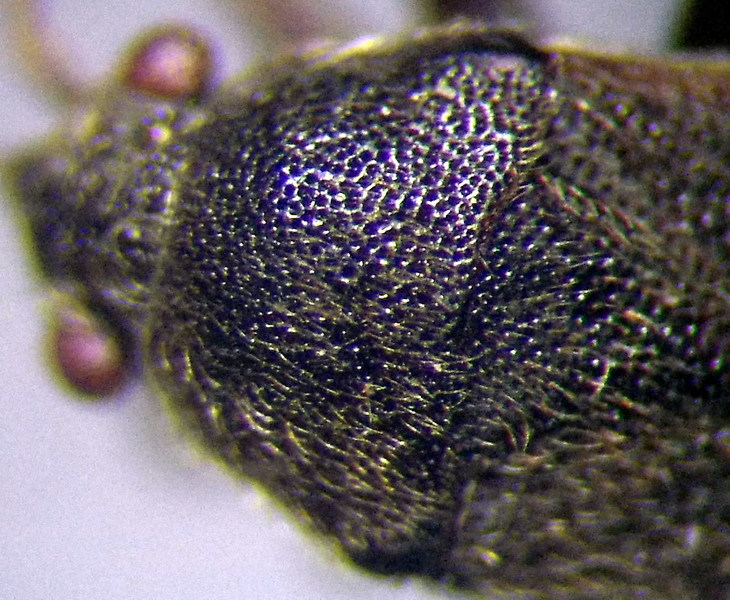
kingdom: Animalia
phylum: Arthropoda
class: Insecta
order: Hemiptera
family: Rhyparochromidae
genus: Stygnocoris
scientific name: Stygnocoris rusticus
